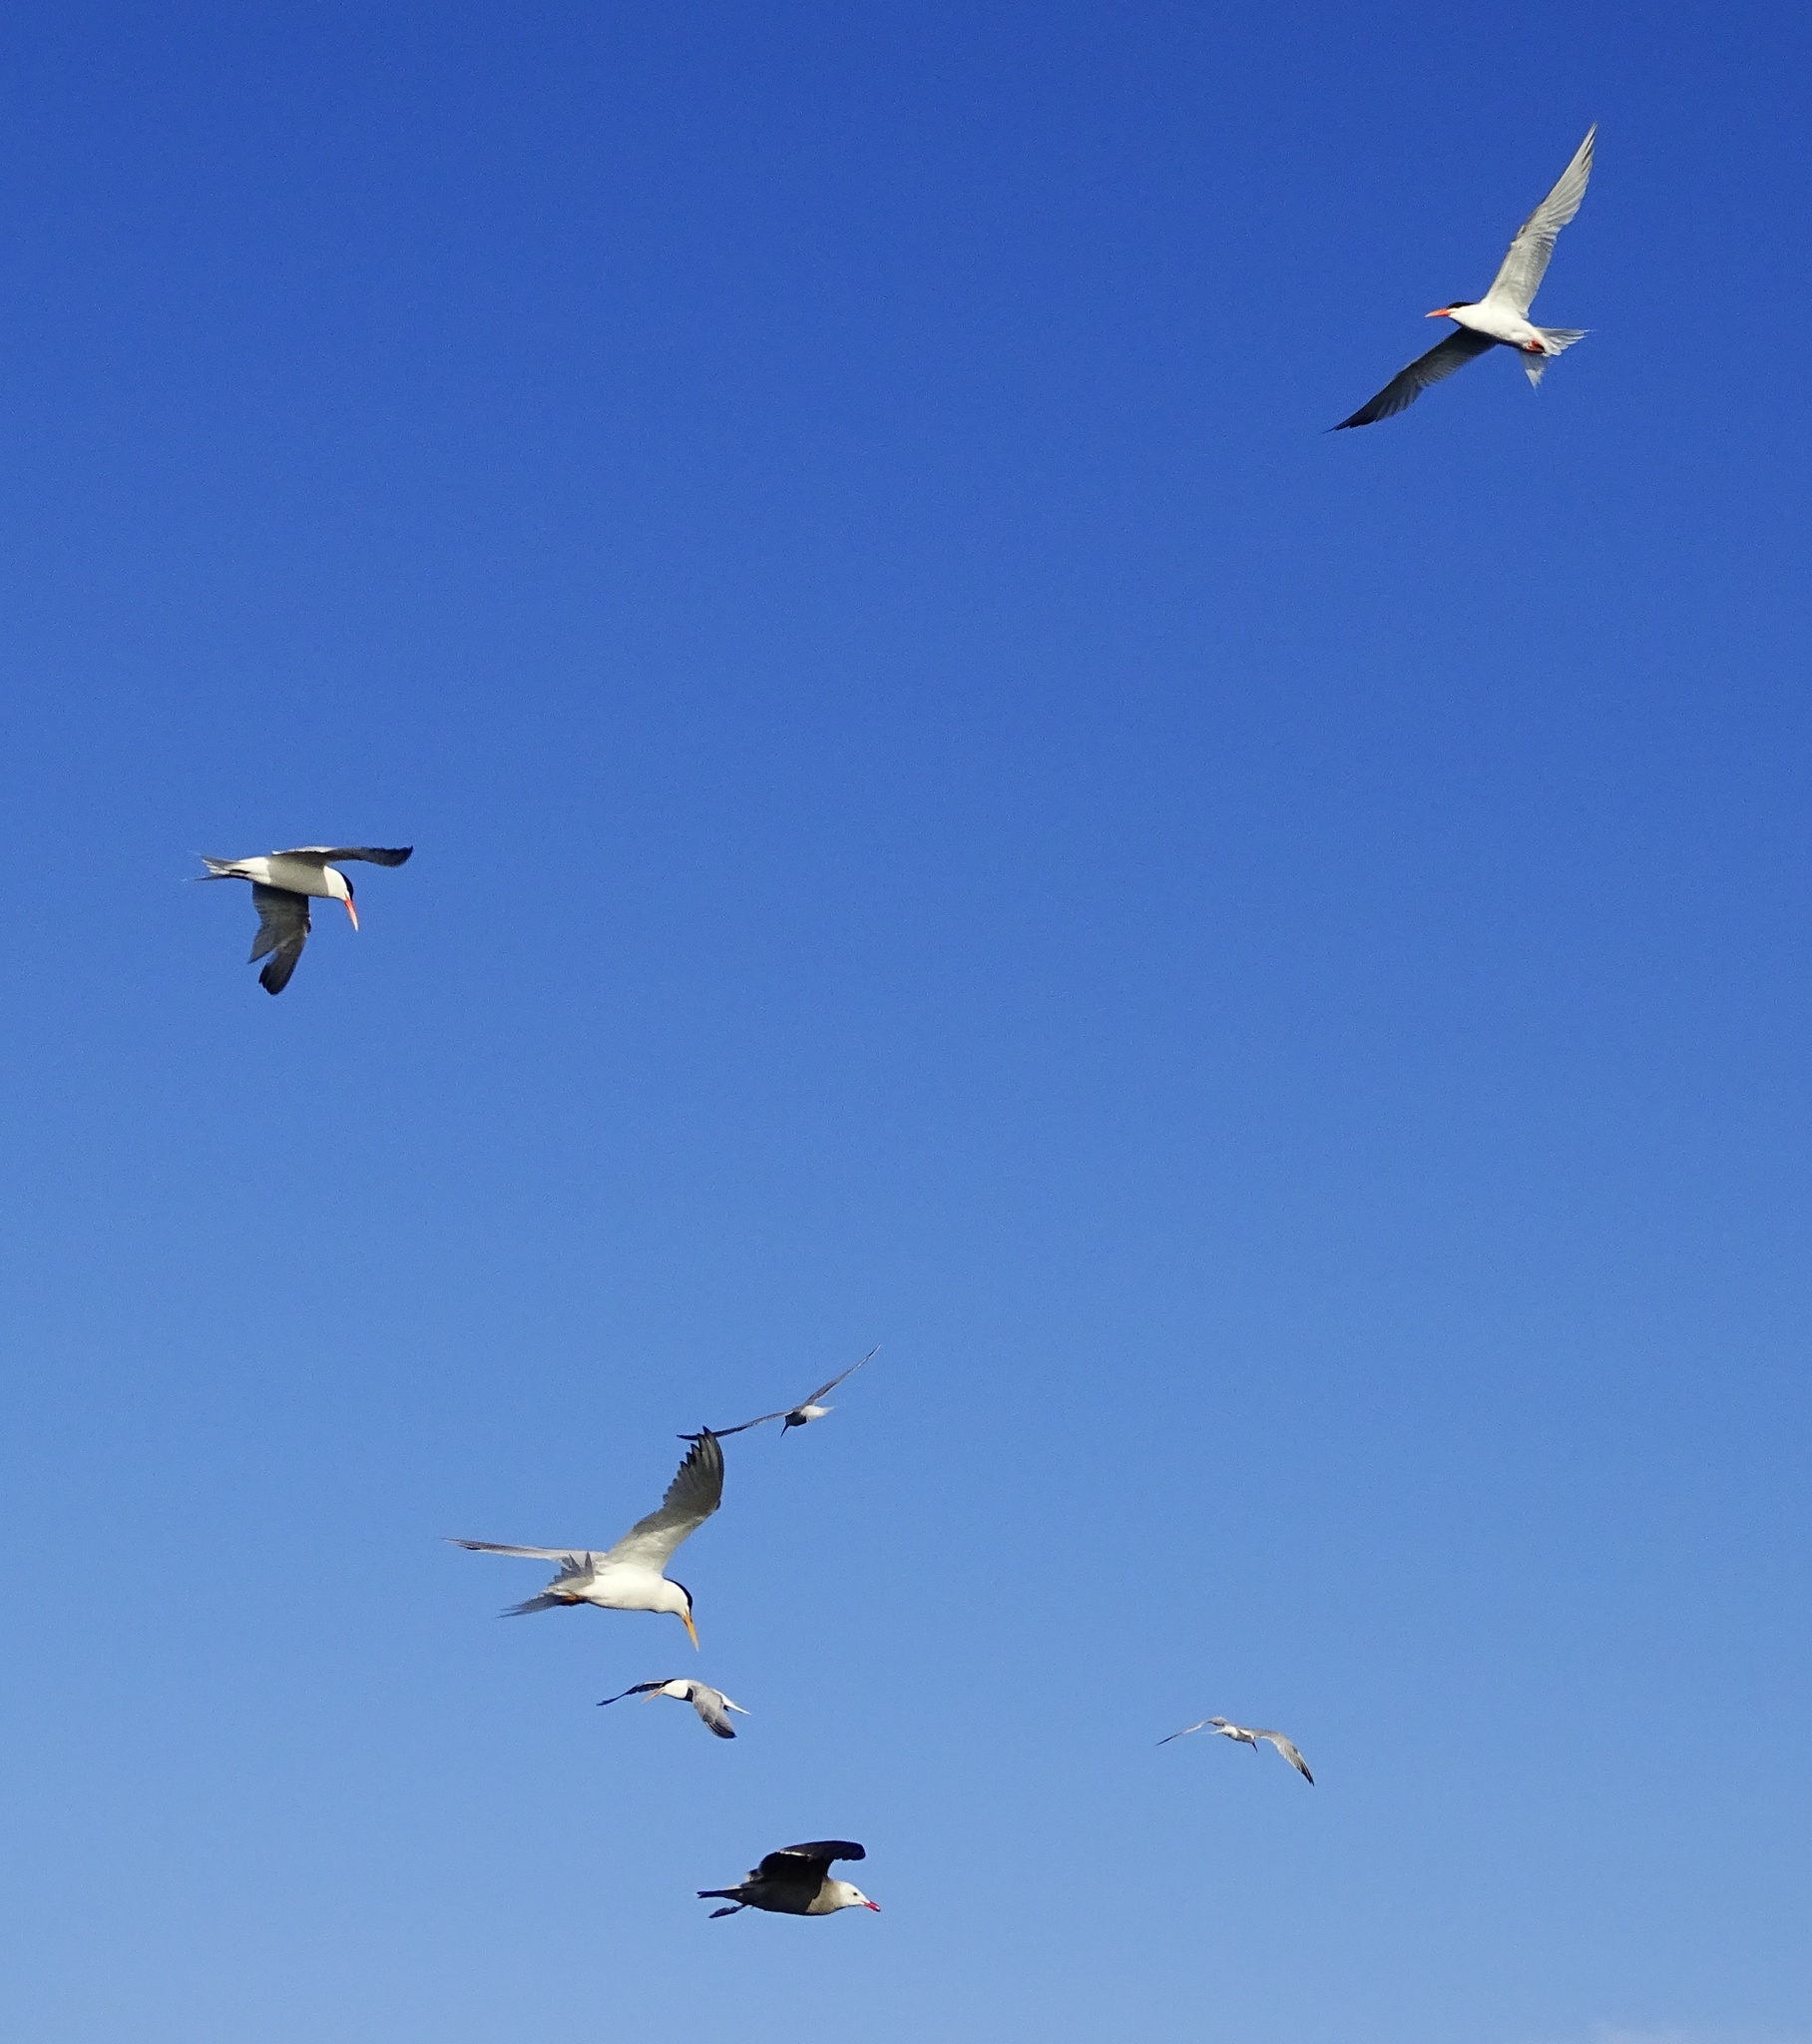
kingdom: Animalia
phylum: Chordata
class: Aves
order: Charadriiformes
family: Laridae
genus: Thalasseus
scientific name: Thalasseus elegans
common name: Elegant tern
